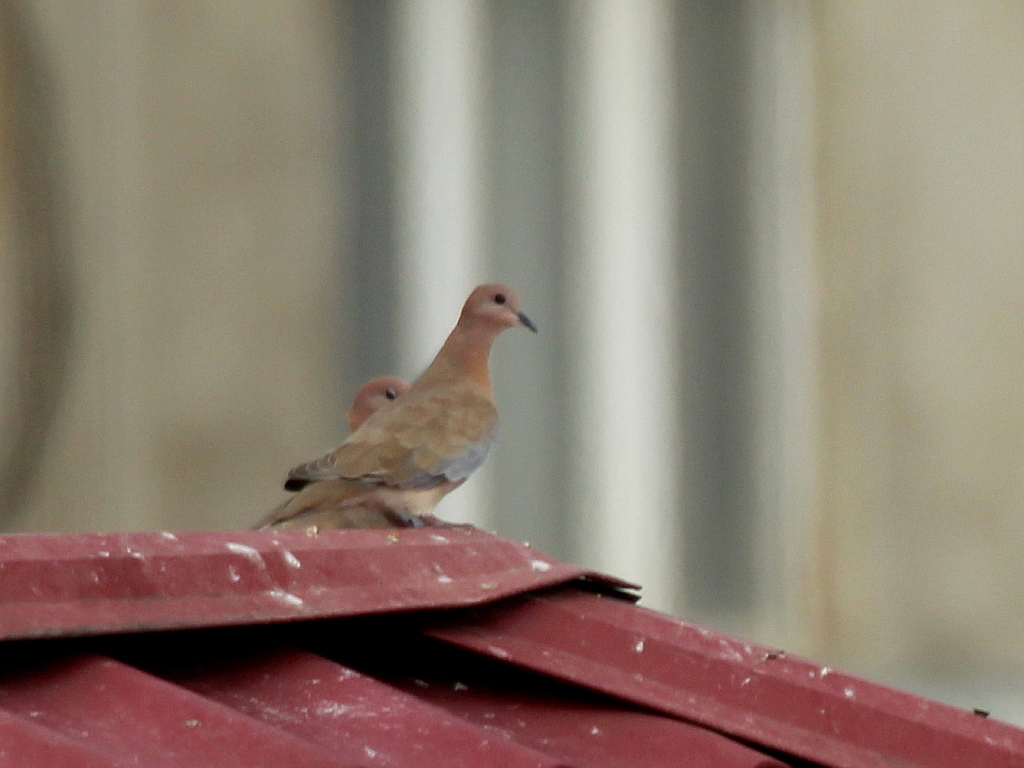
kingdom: Animalia
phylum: Chordata
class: Aves
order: Columbiformes
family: Columbidae
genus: Spilopelia
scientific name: Spilopelia senegalensis
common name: Laughing dove
